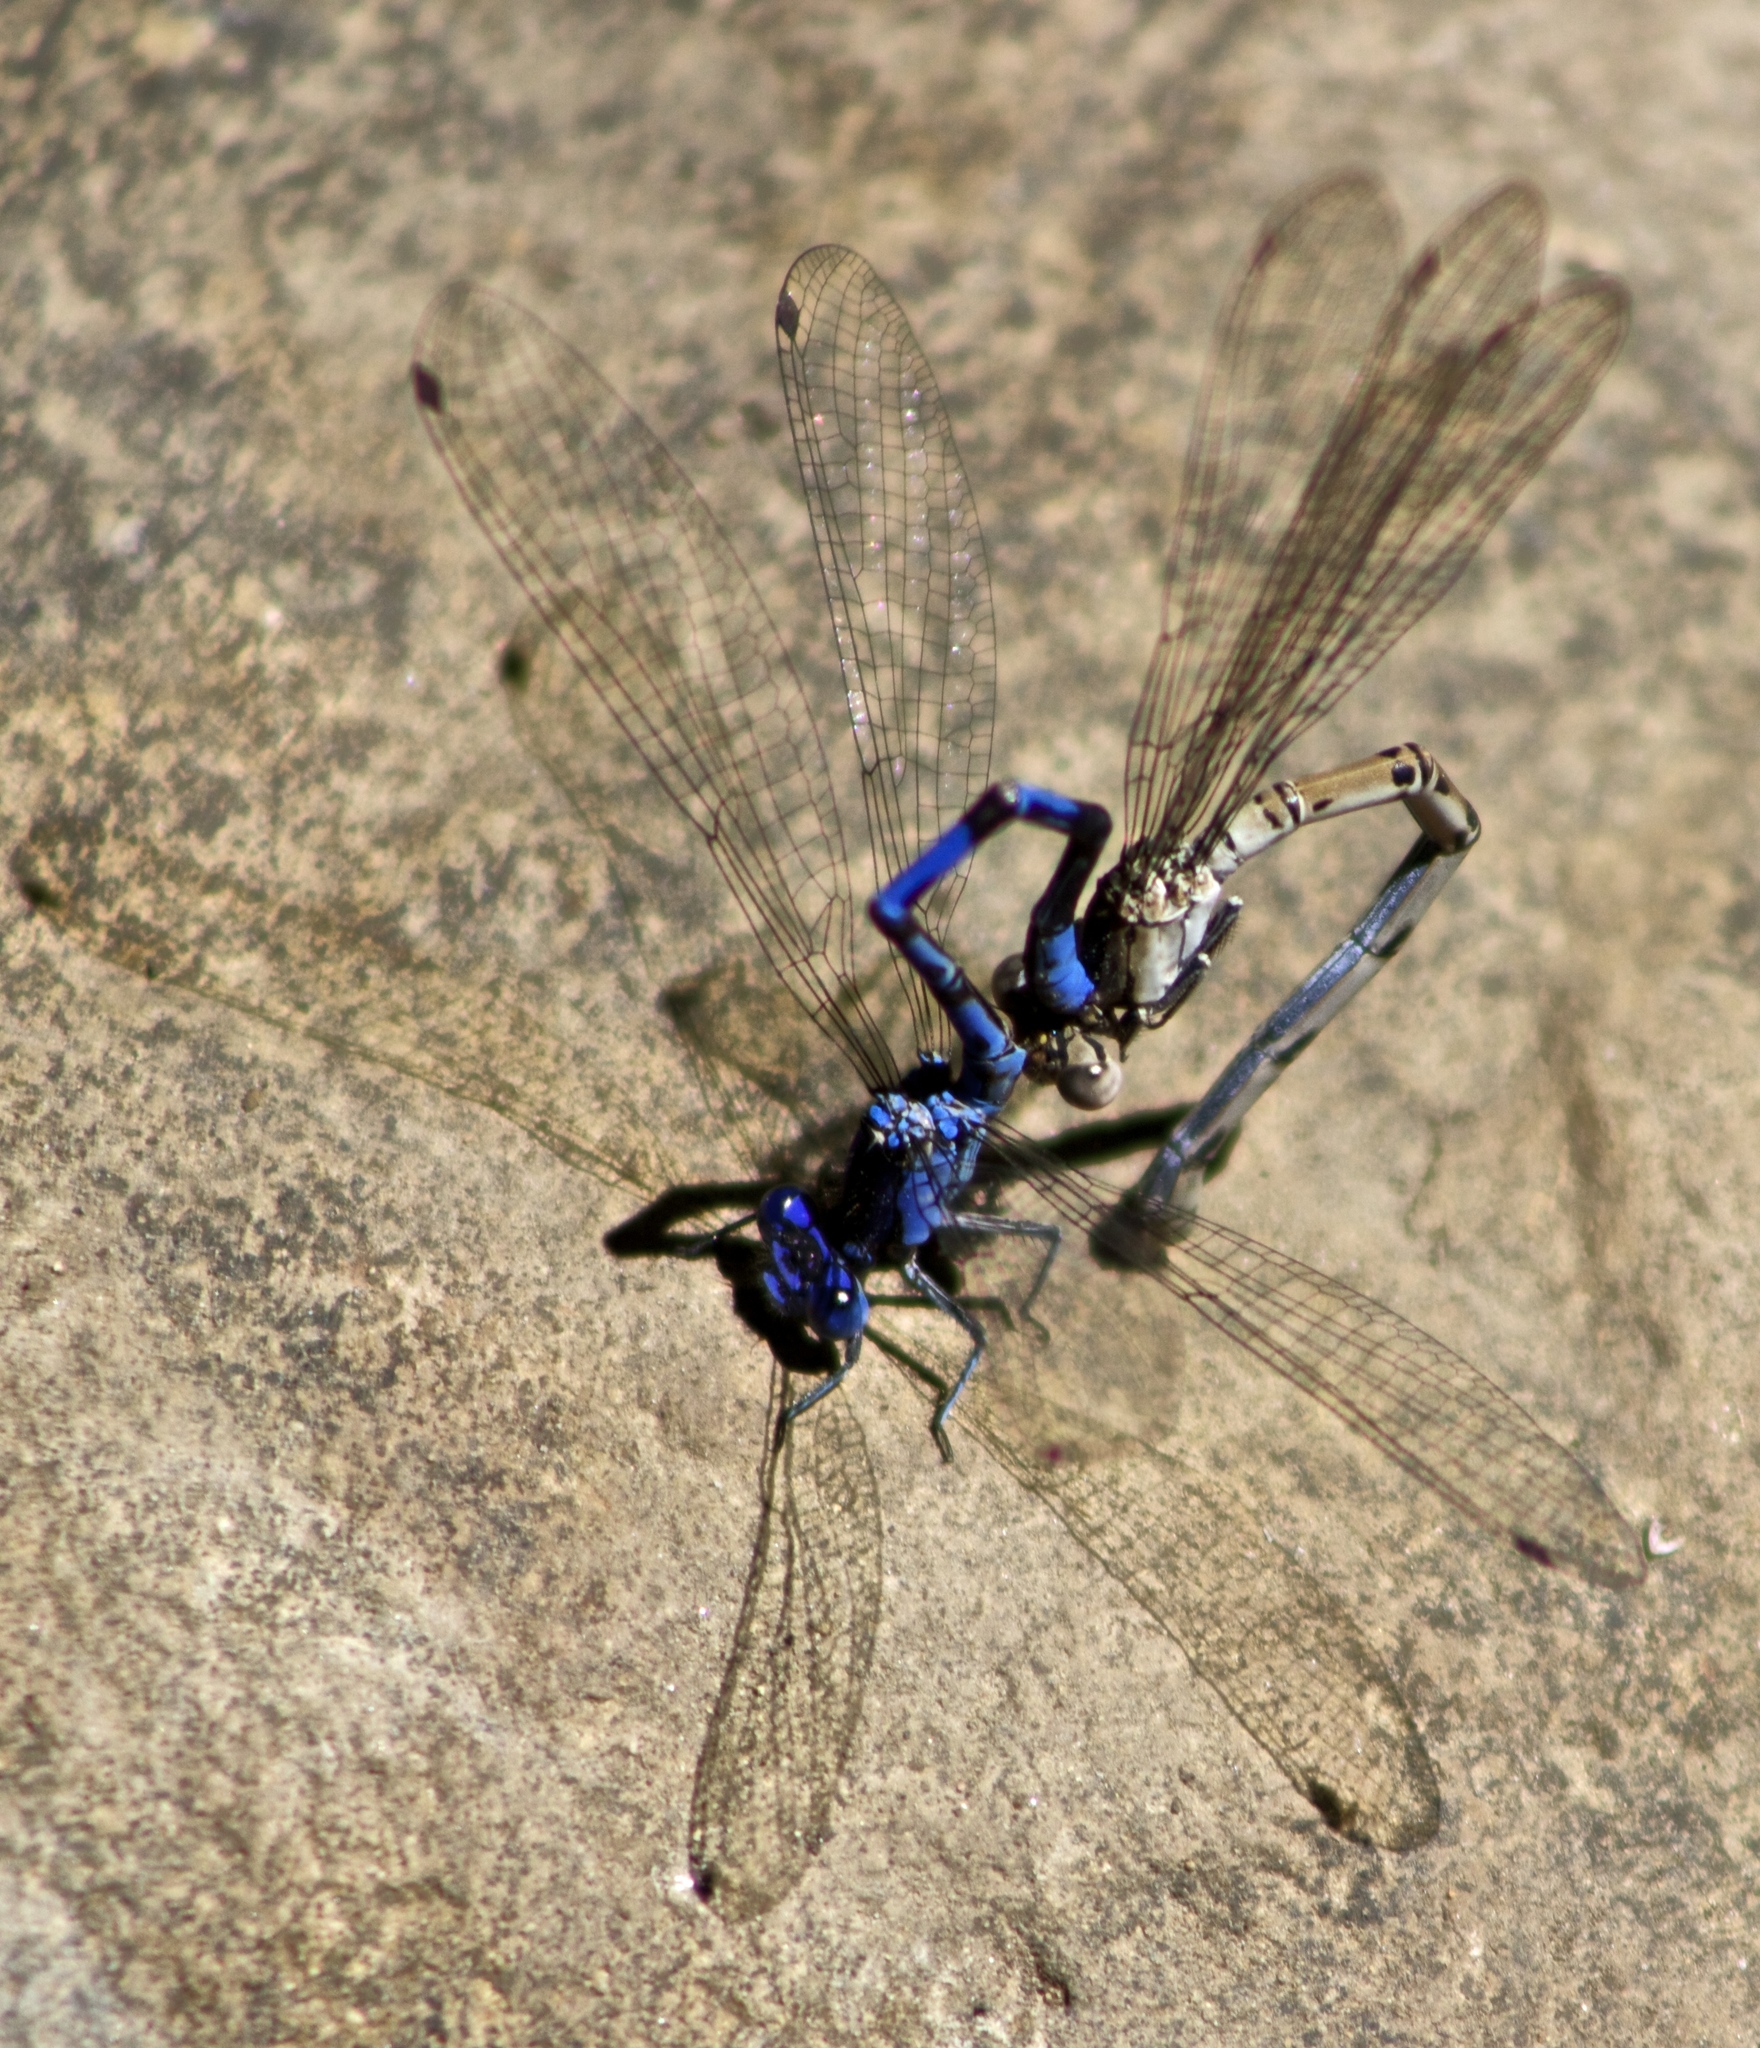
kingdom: Animalia
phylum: Arthropoda
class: Insecta
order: Odonata
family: Coenagrionidae
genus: Argia
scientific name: Argia vivida
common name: Vivid dancer
